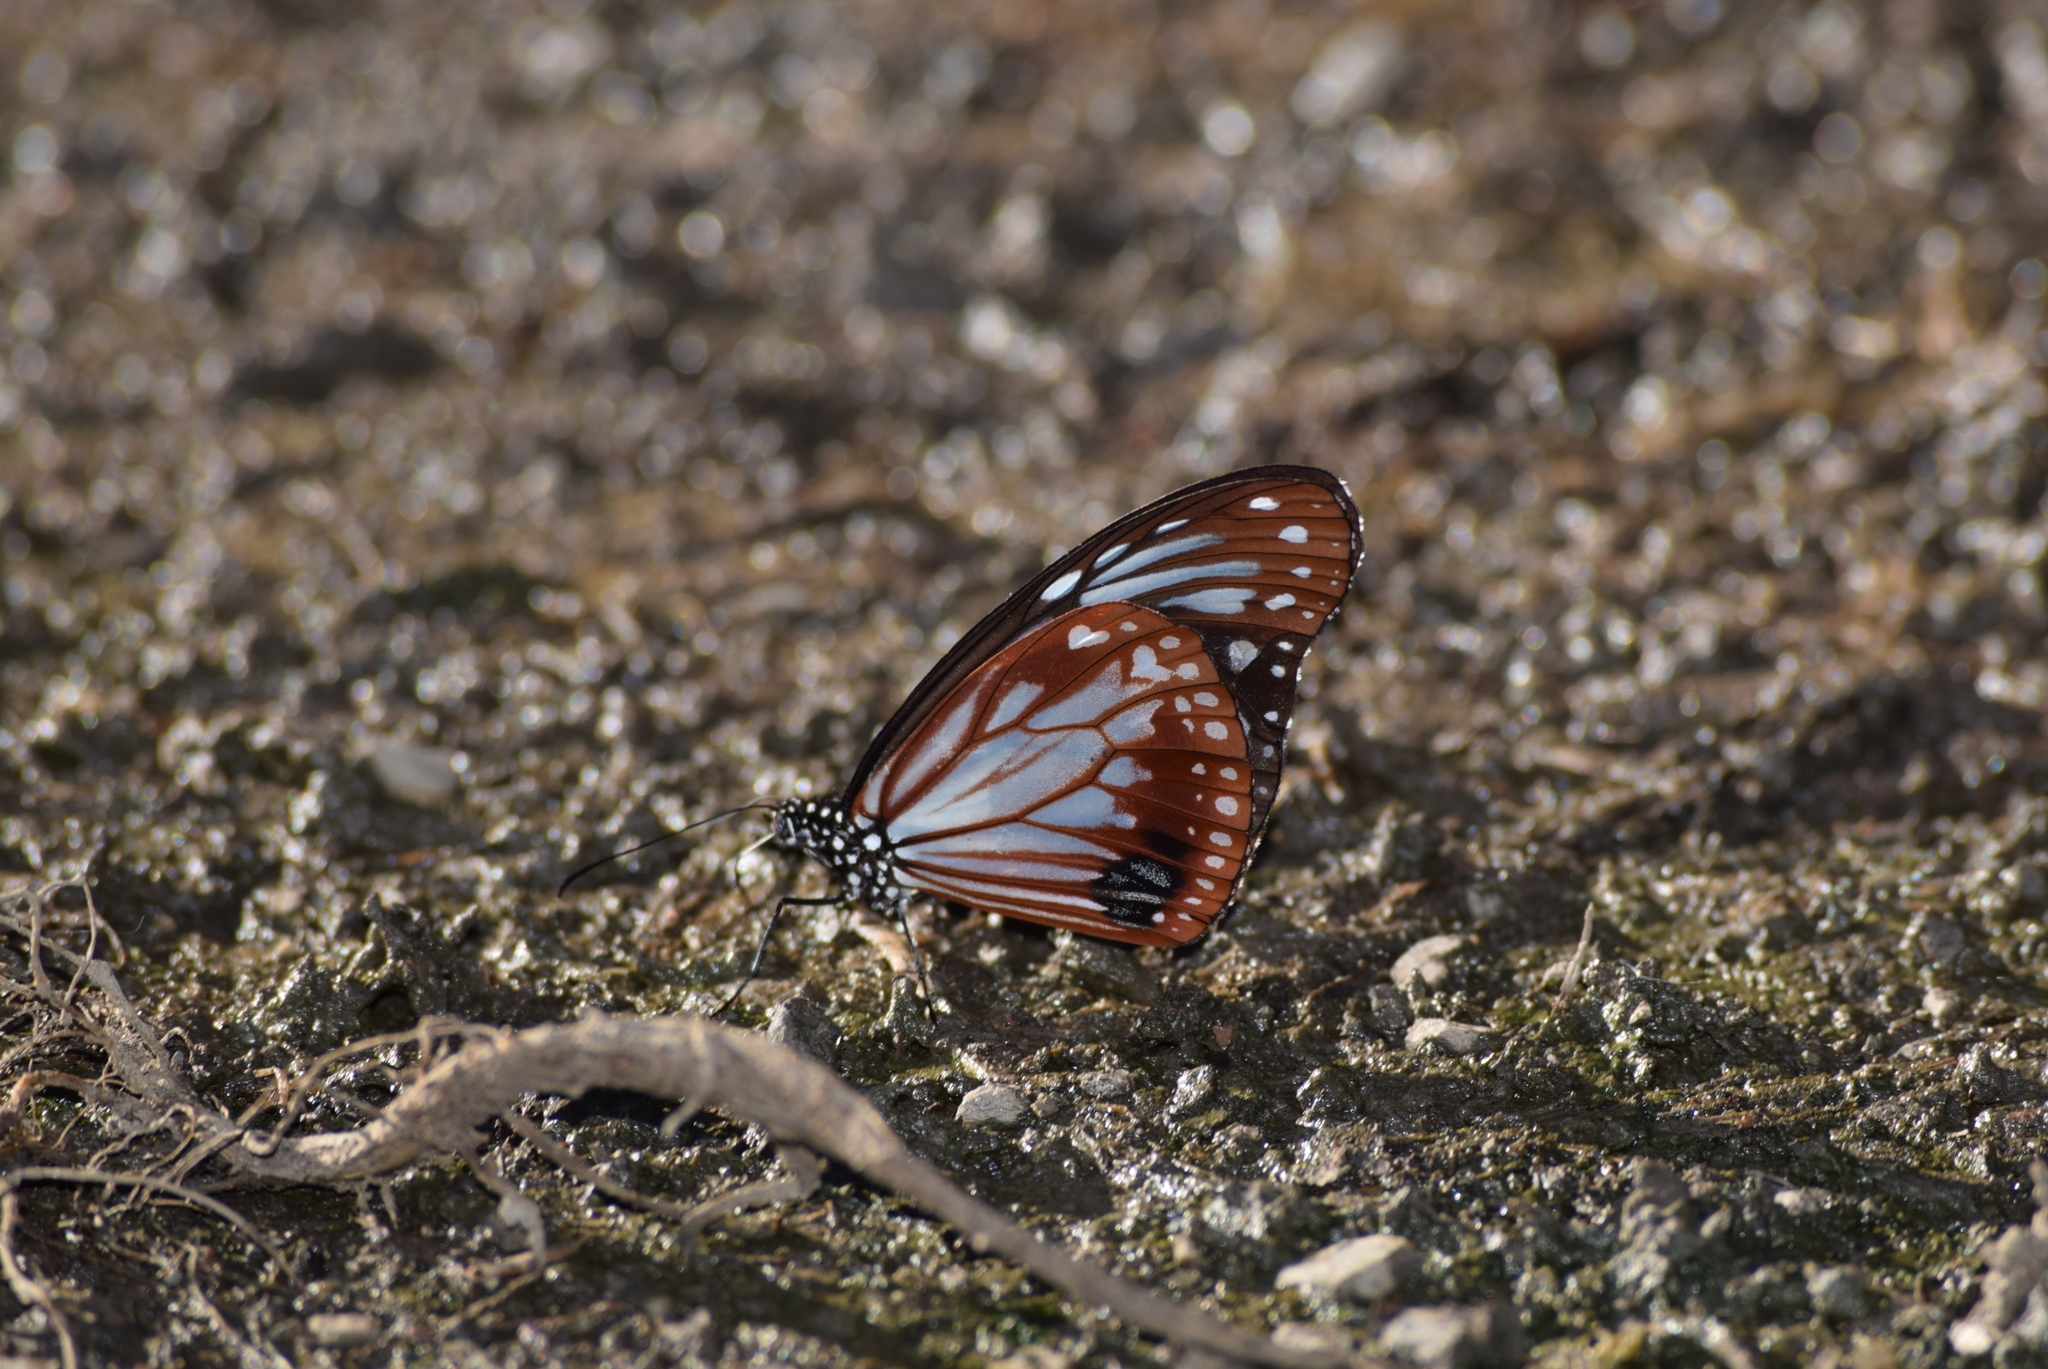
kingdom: Animalia
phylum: Arthropoda
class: Insecta
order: Lepidoptera
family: Nymphalidae
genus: Parantica
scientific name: Parantica sita
